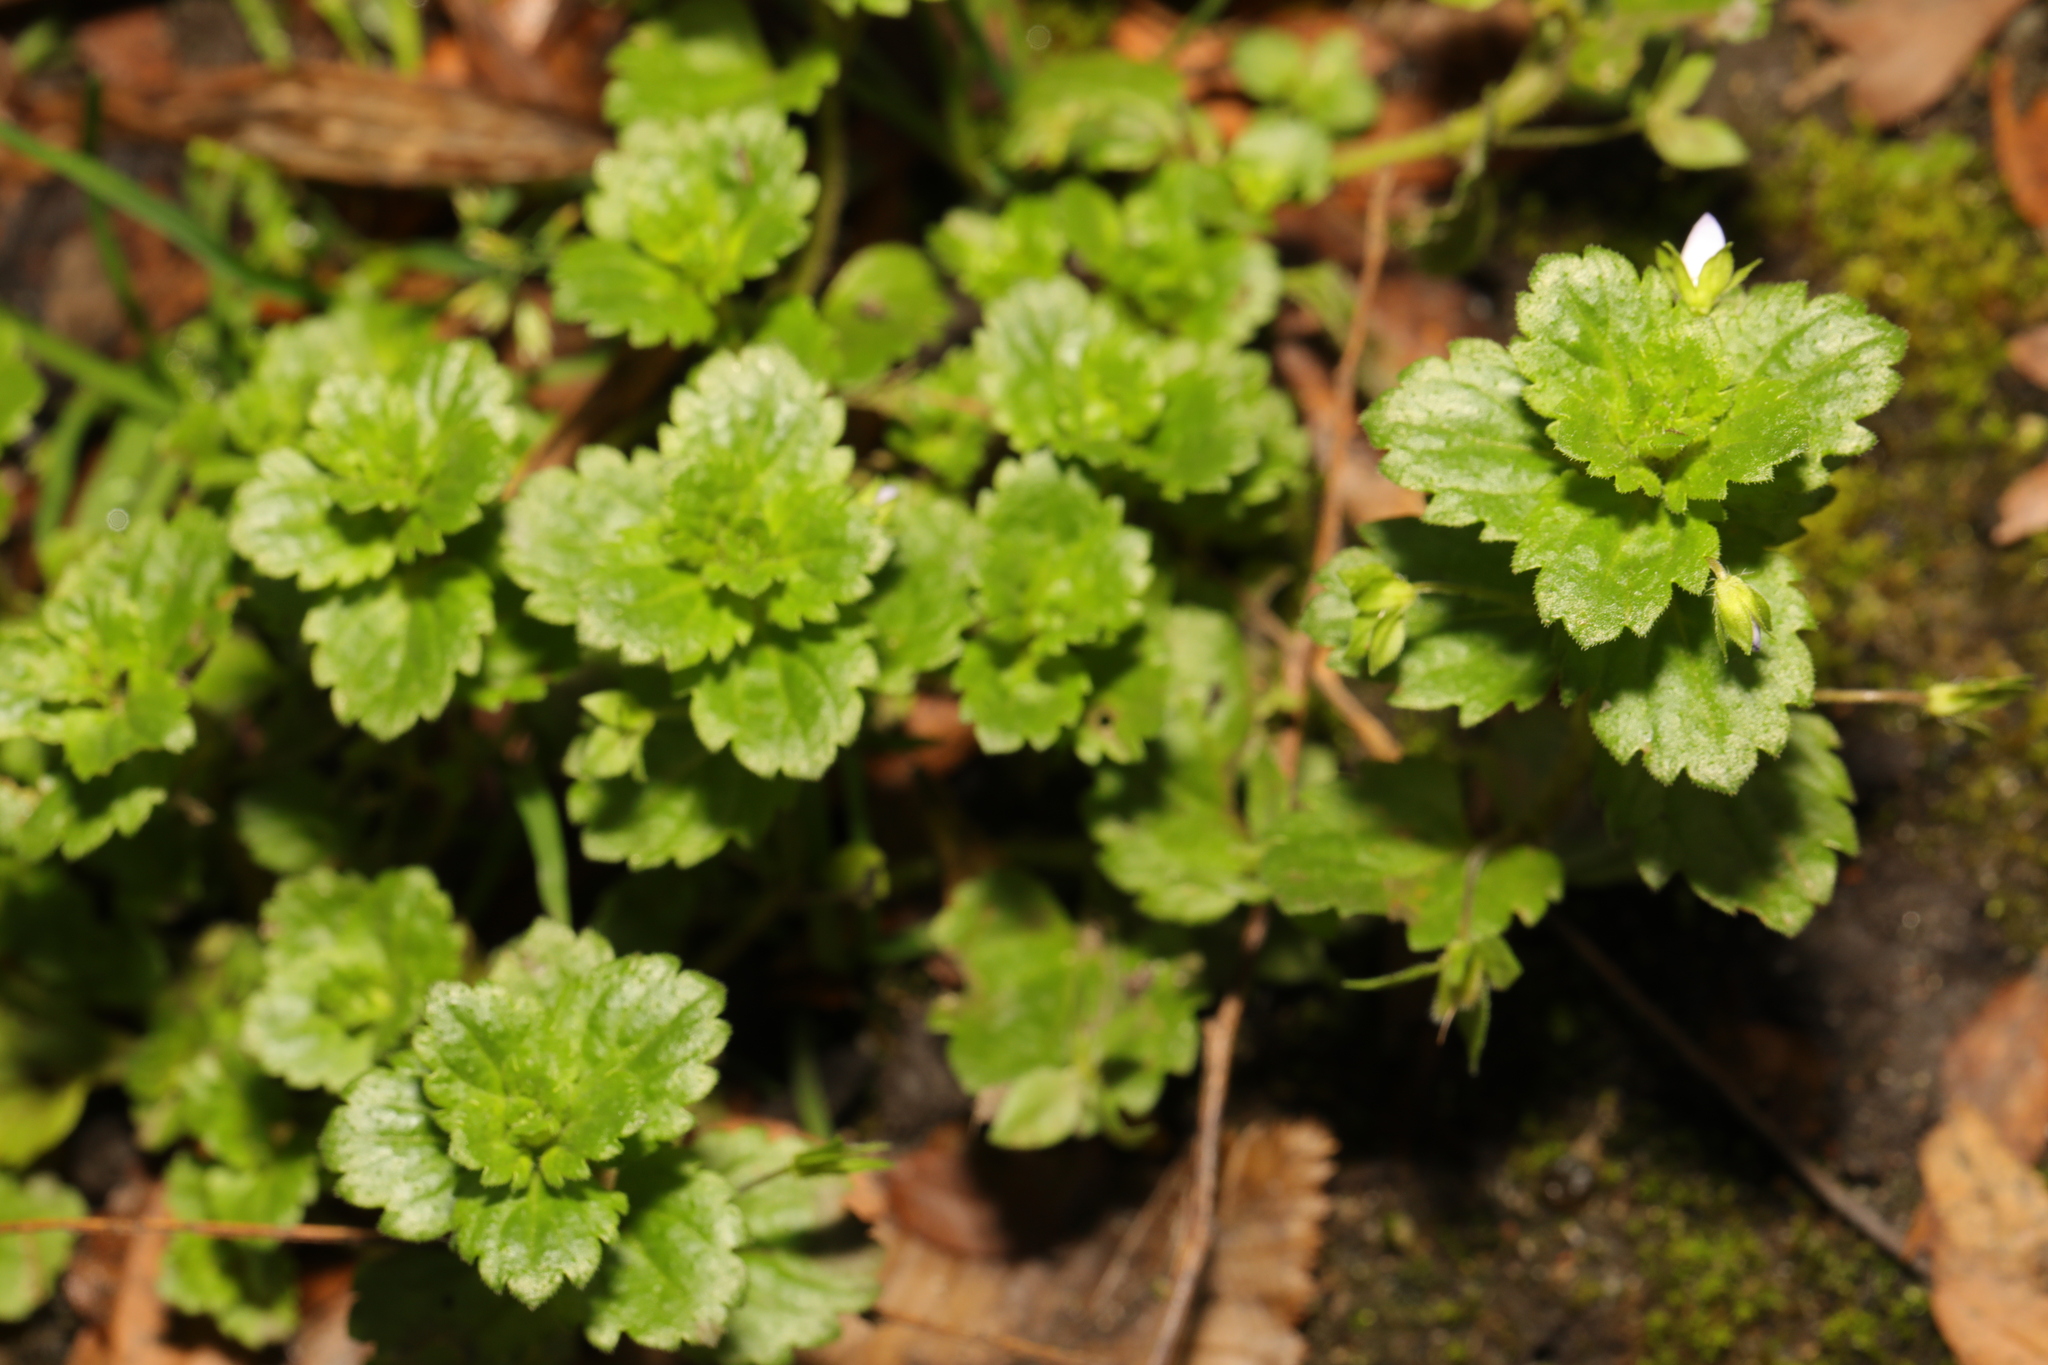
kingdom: Plantae
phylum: Tracheophyta
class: Magnoliopsida
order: Lamiales
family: Plantaginaceae
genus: Veronica
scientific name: Veronica persica
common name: Common field-speedwell
